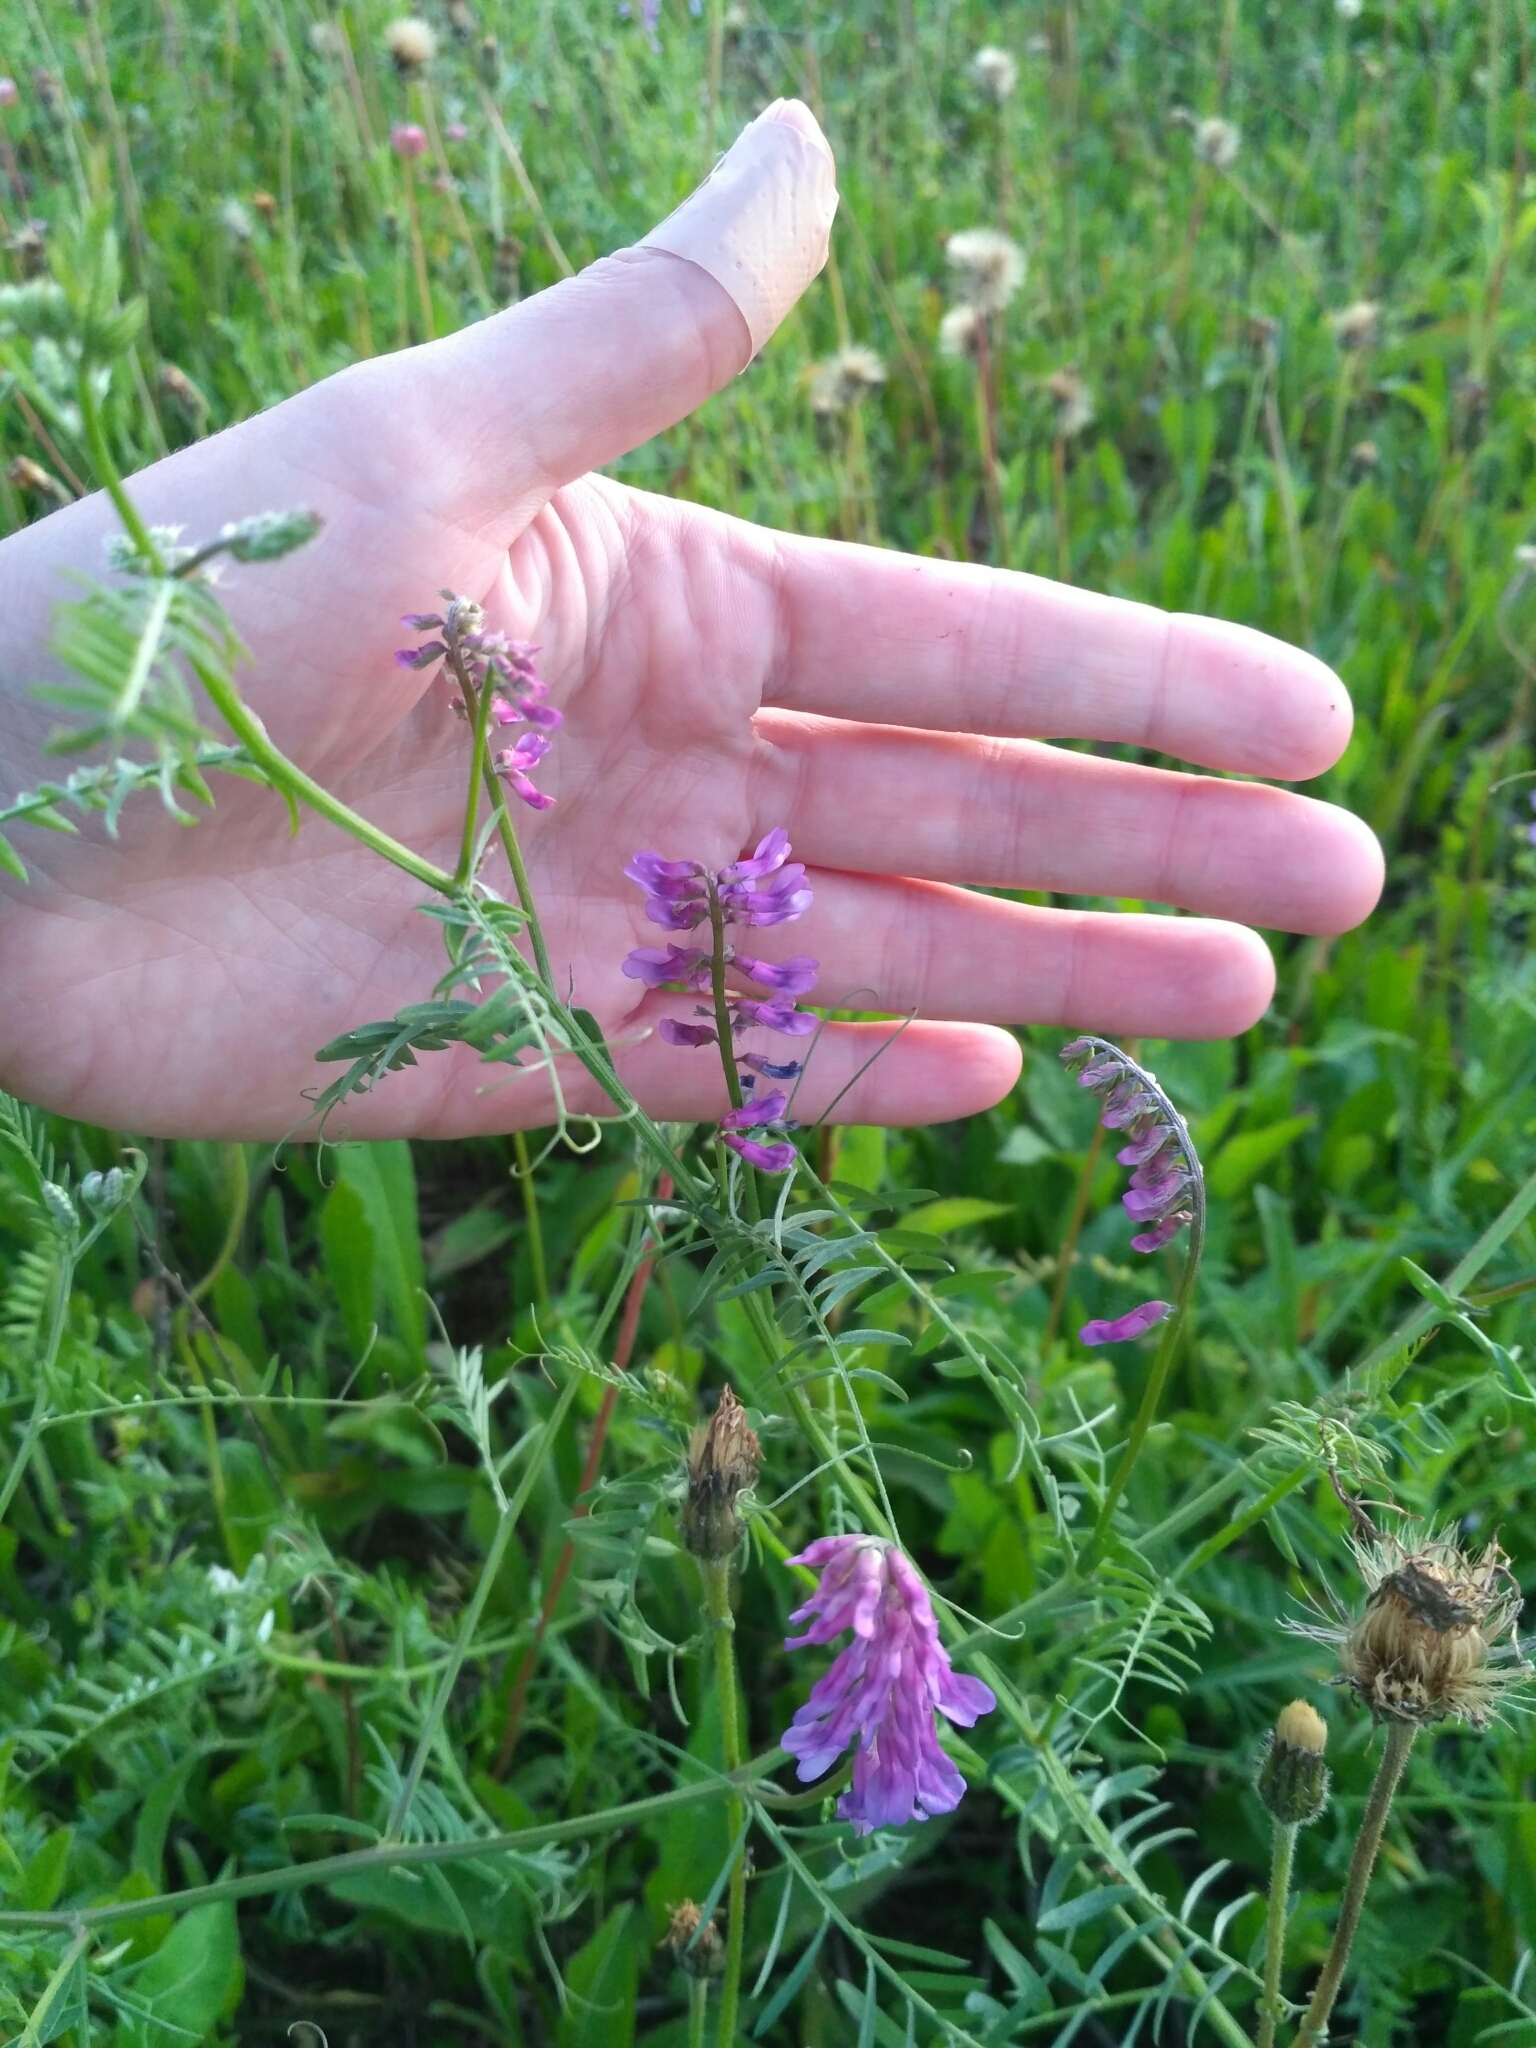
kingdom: Plantae
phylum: Tracheophyta
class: Magnoliopsida
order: Fabales
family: Fabaceae
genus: Vicia
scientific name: Vicia cracca
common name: Bird vetch
